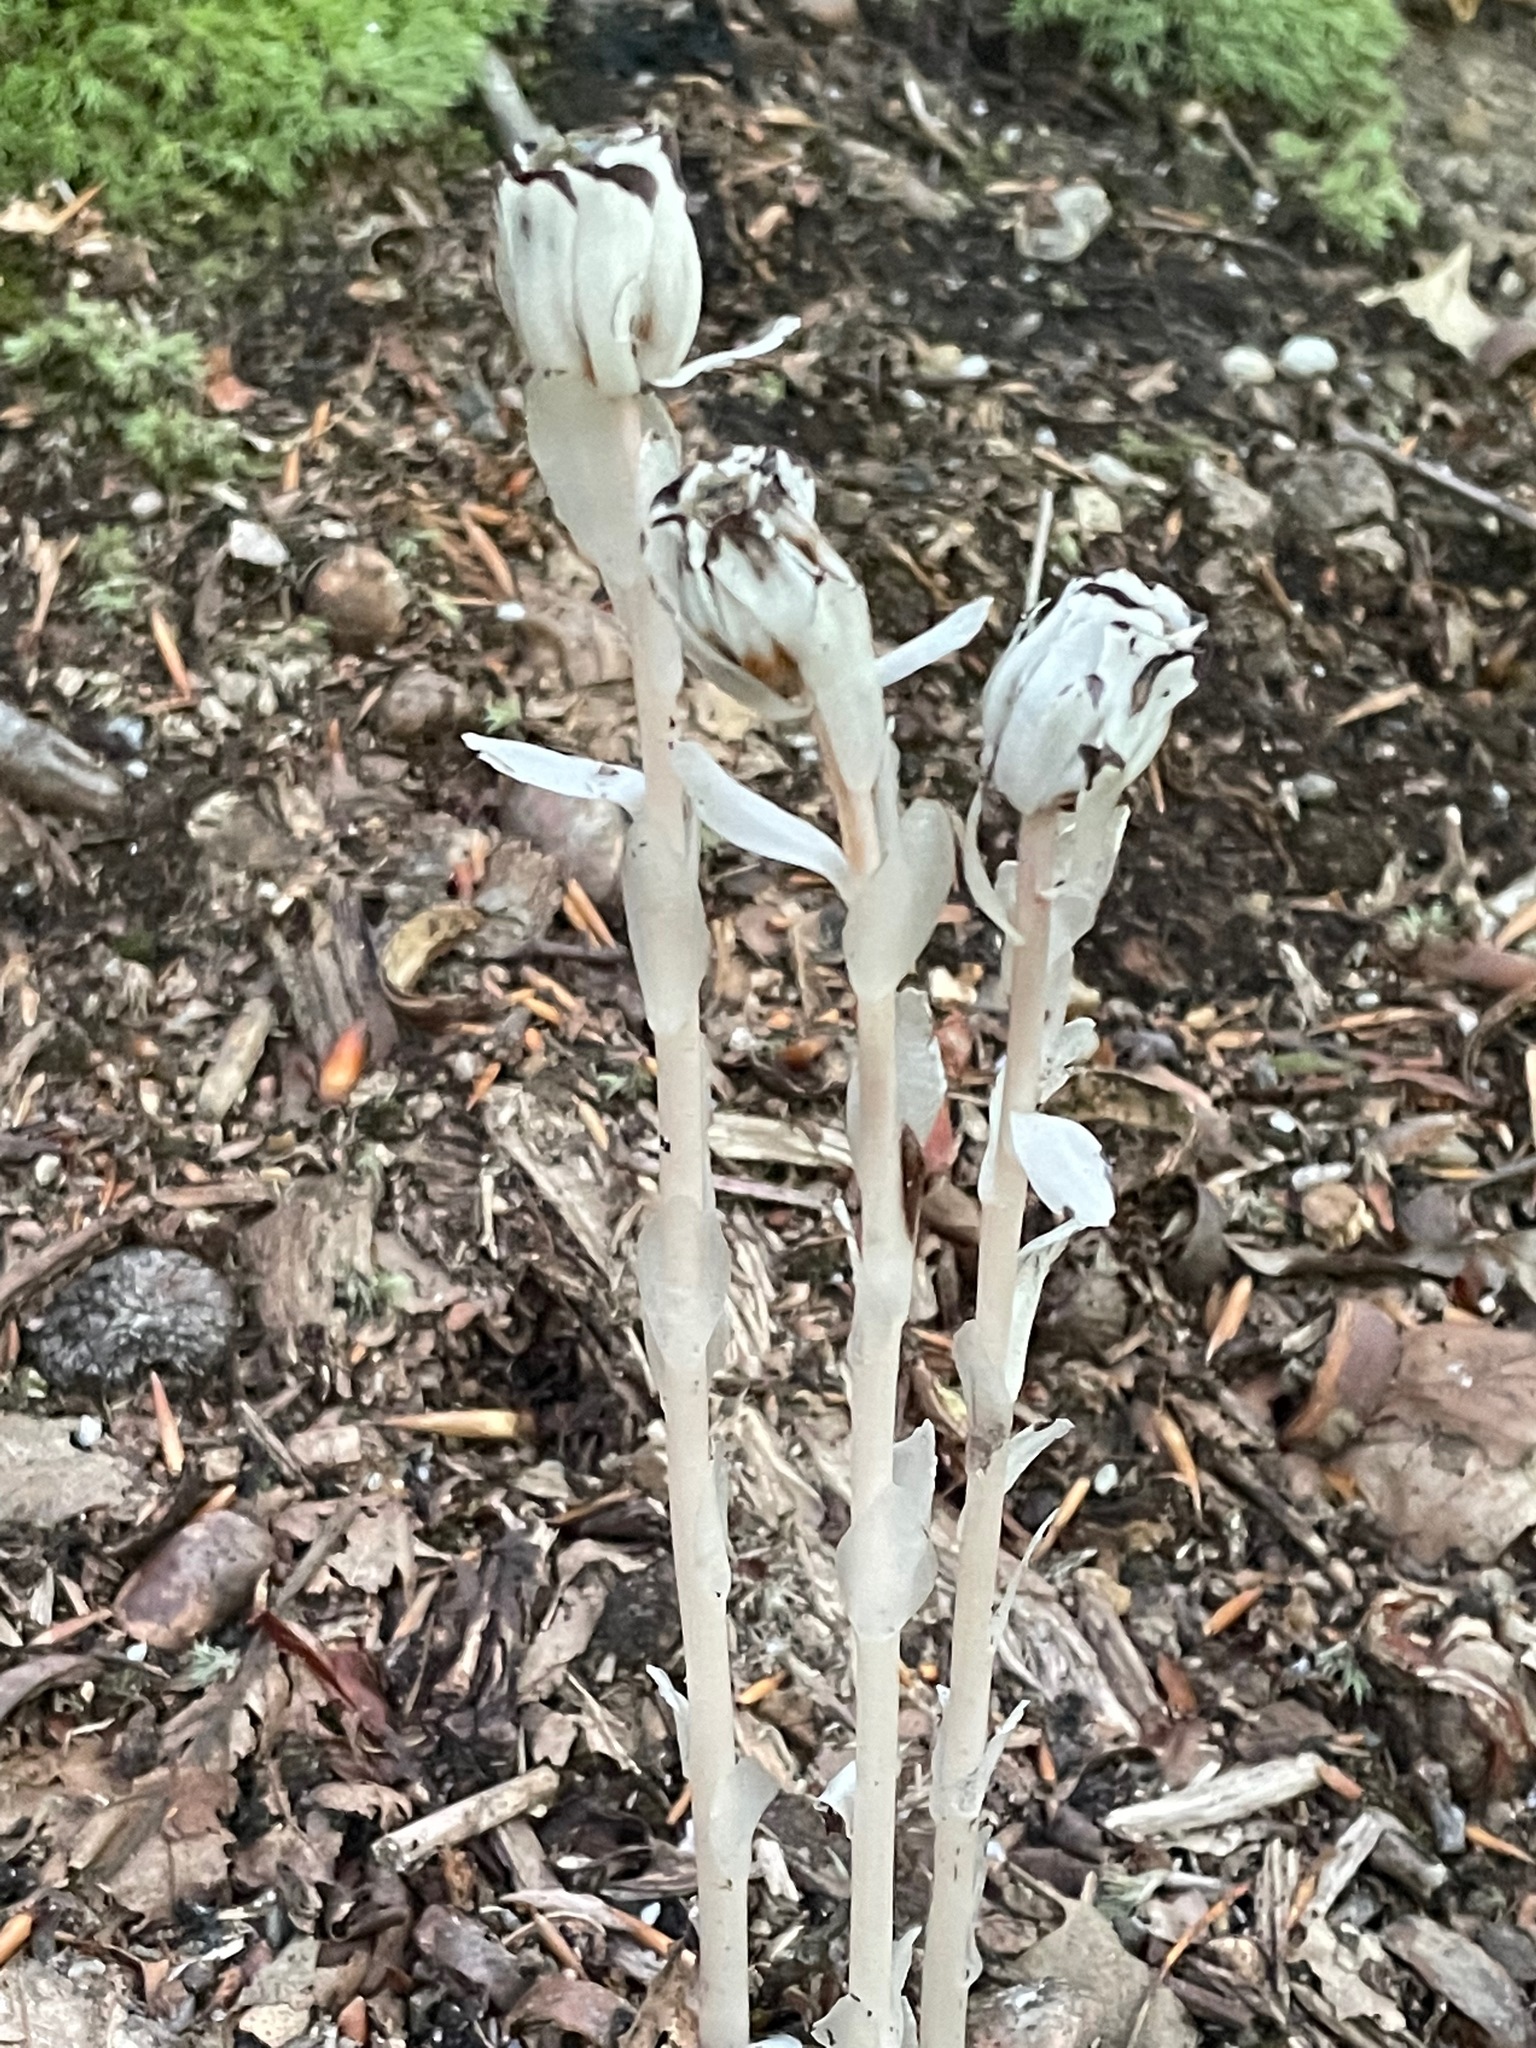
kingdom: Plantae
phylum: Tracheophyta
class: Magnoliopsida
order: Ericales
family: Ericaceae
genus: Monotropa
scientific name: Monotropa uniflora
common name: Convulsion root
